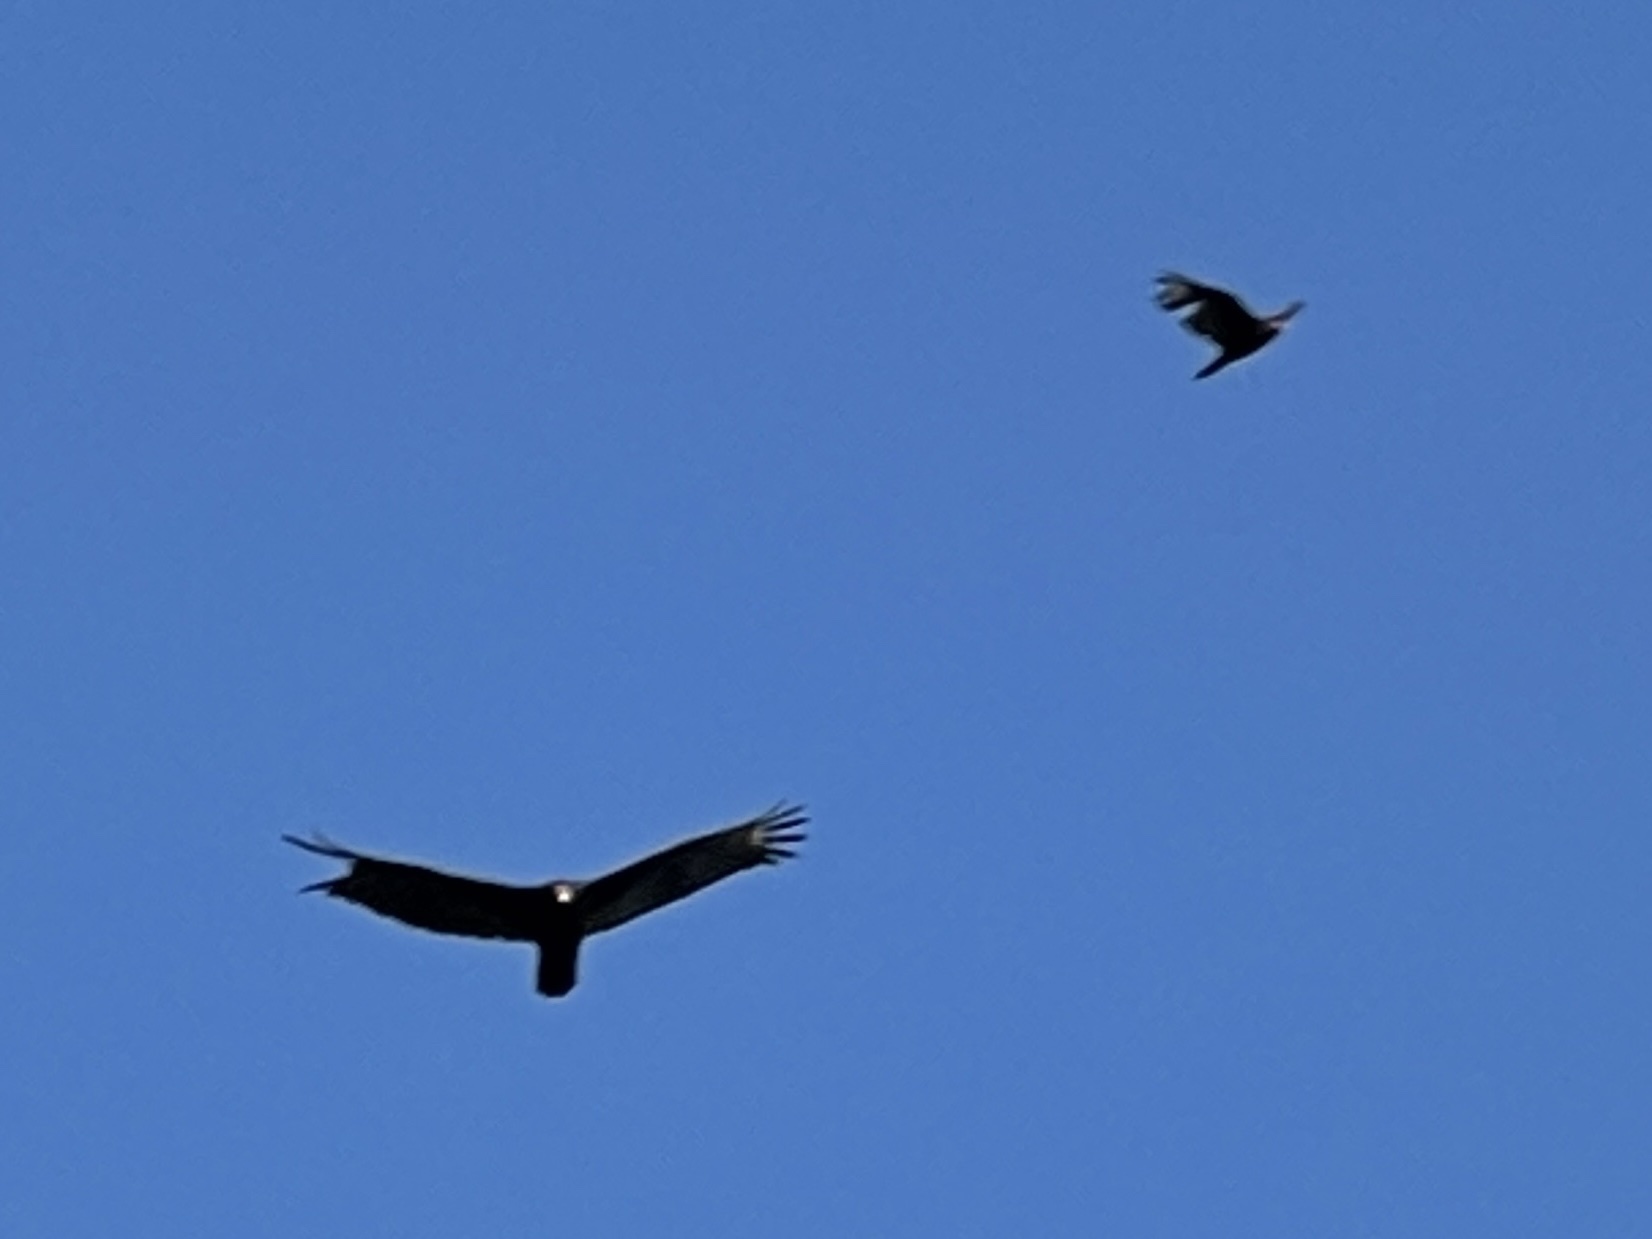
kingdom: Animalia
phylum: Chordata
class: Aves
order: Accipitriformes
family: Cathartidae
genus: Cathartes
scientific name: Cathartes aura
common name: Turkey vulture
